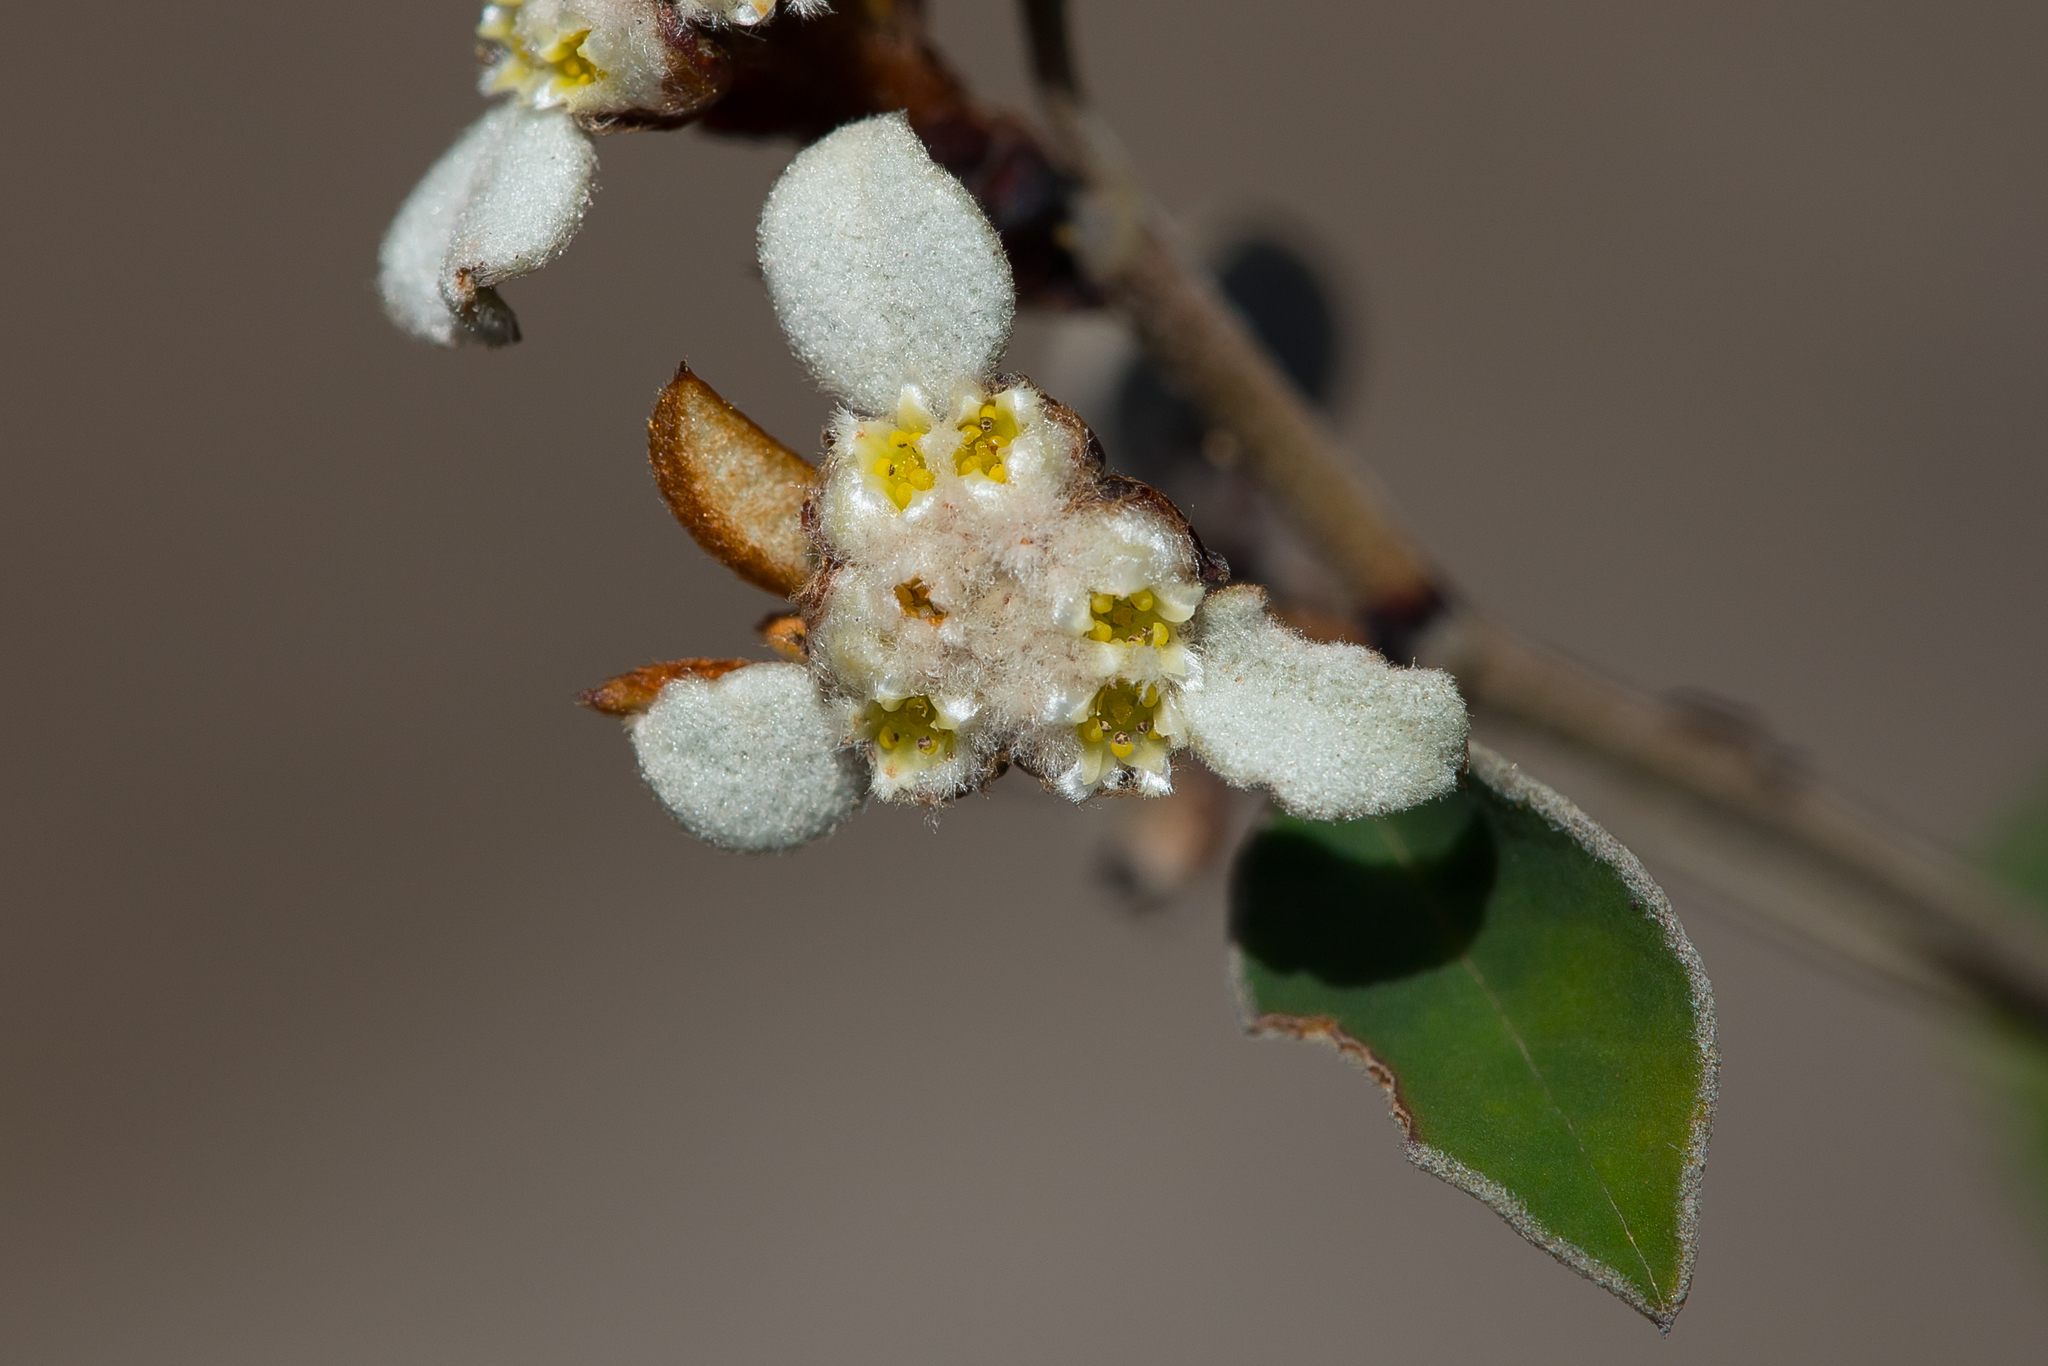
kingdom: Plantae
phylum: Tracheophyta
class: Magnoliopsida
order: Rosales
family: Rhamnaceae
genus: Spyridium
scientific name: Spyridium thymifolium
